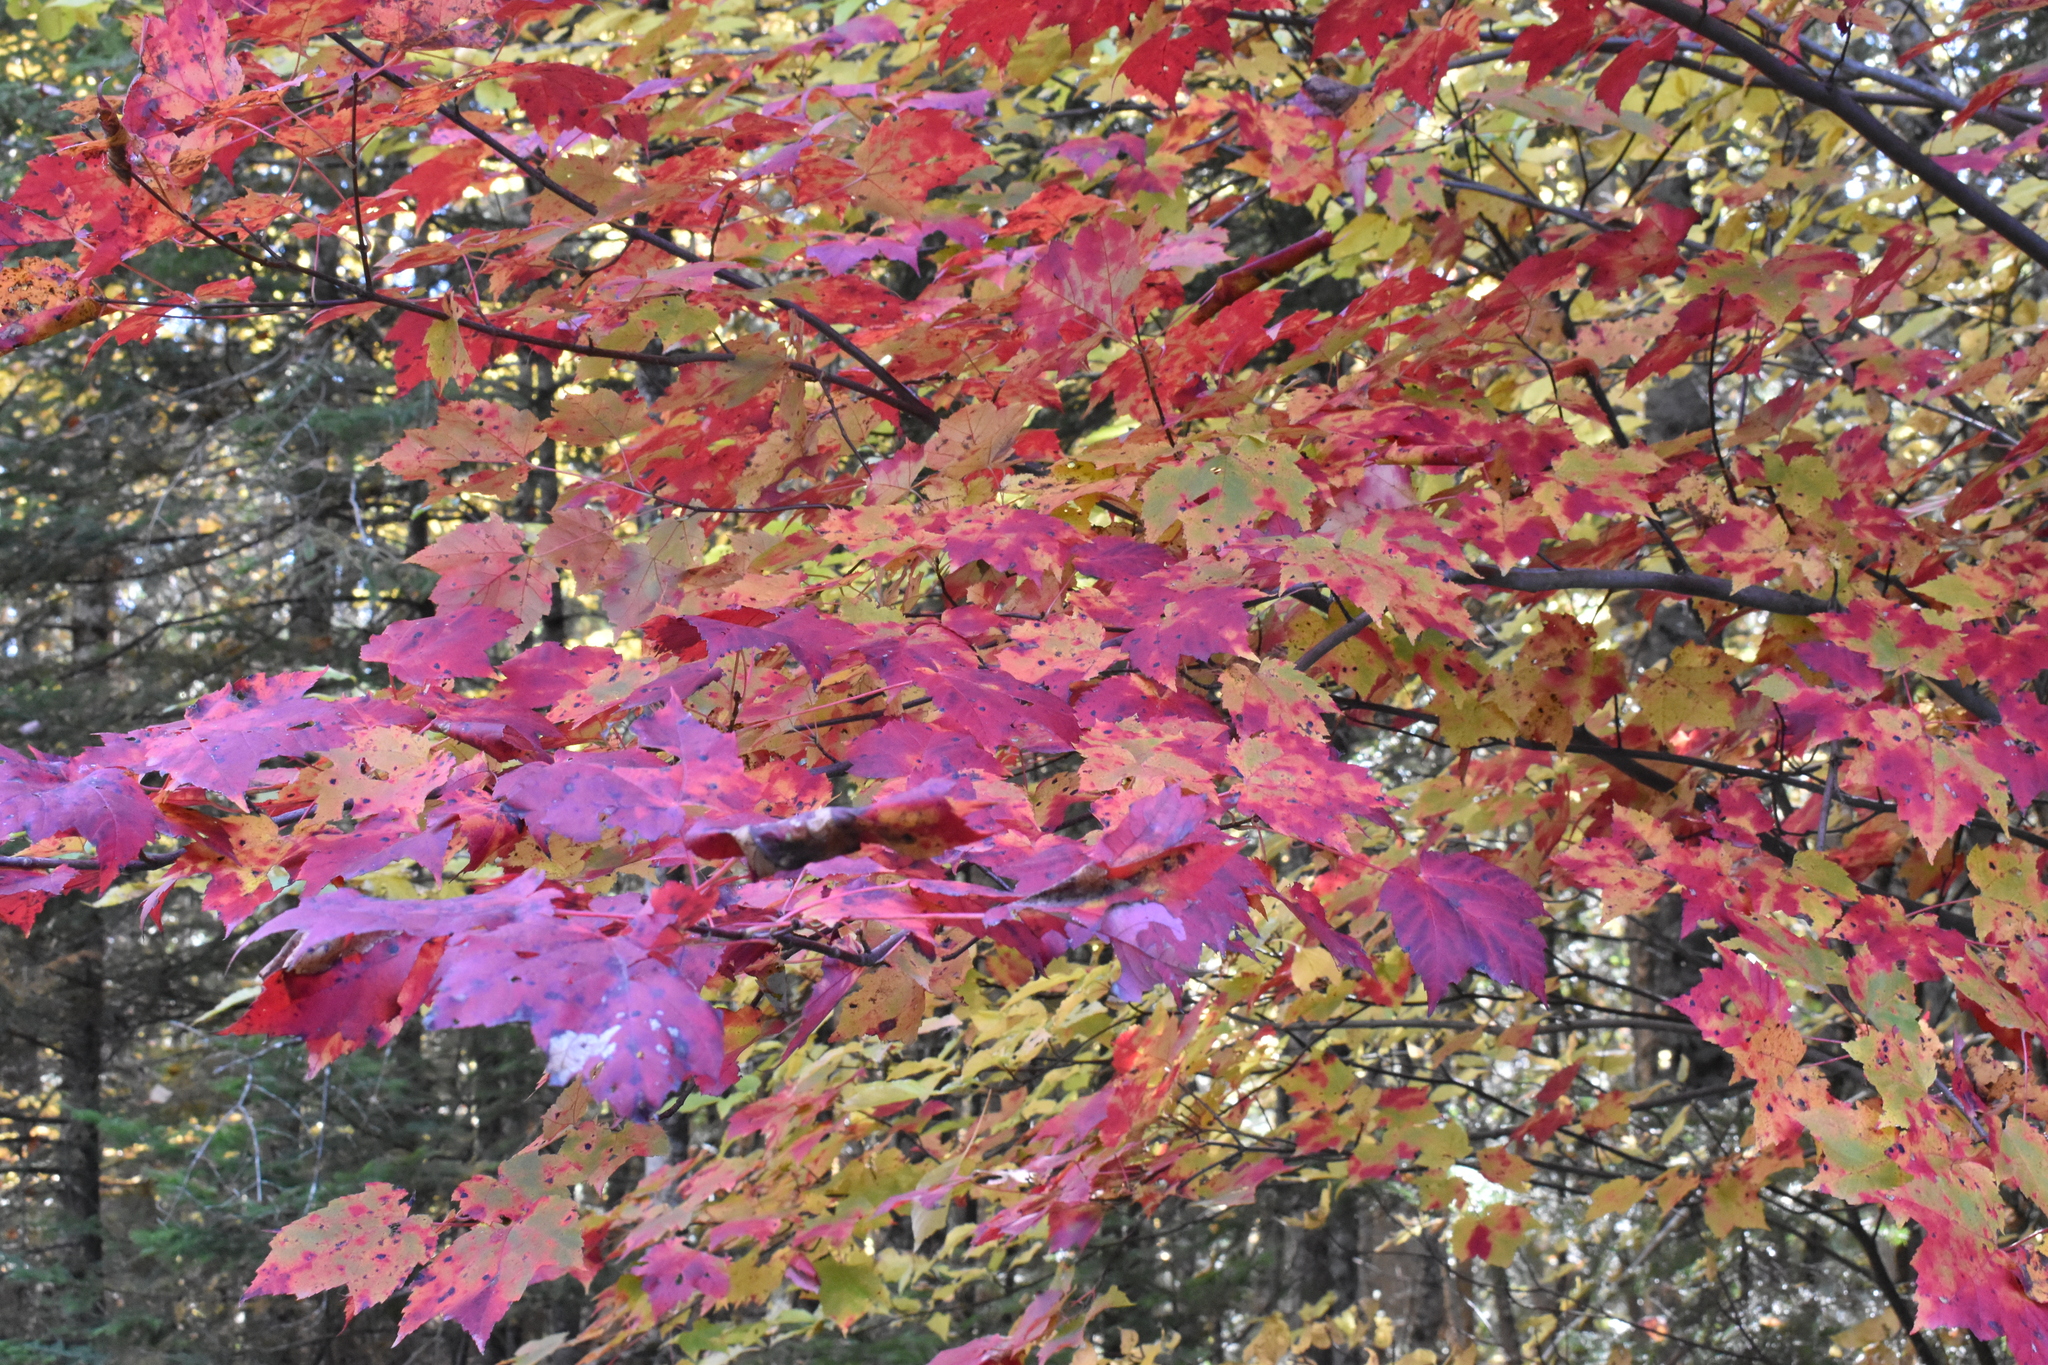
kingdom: Plantae
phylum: Tracheophyta
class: Magnoliopsida
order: Sapindales
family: Sapindaceae
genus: Acer
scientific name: Acer rubrum
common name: Red maple
